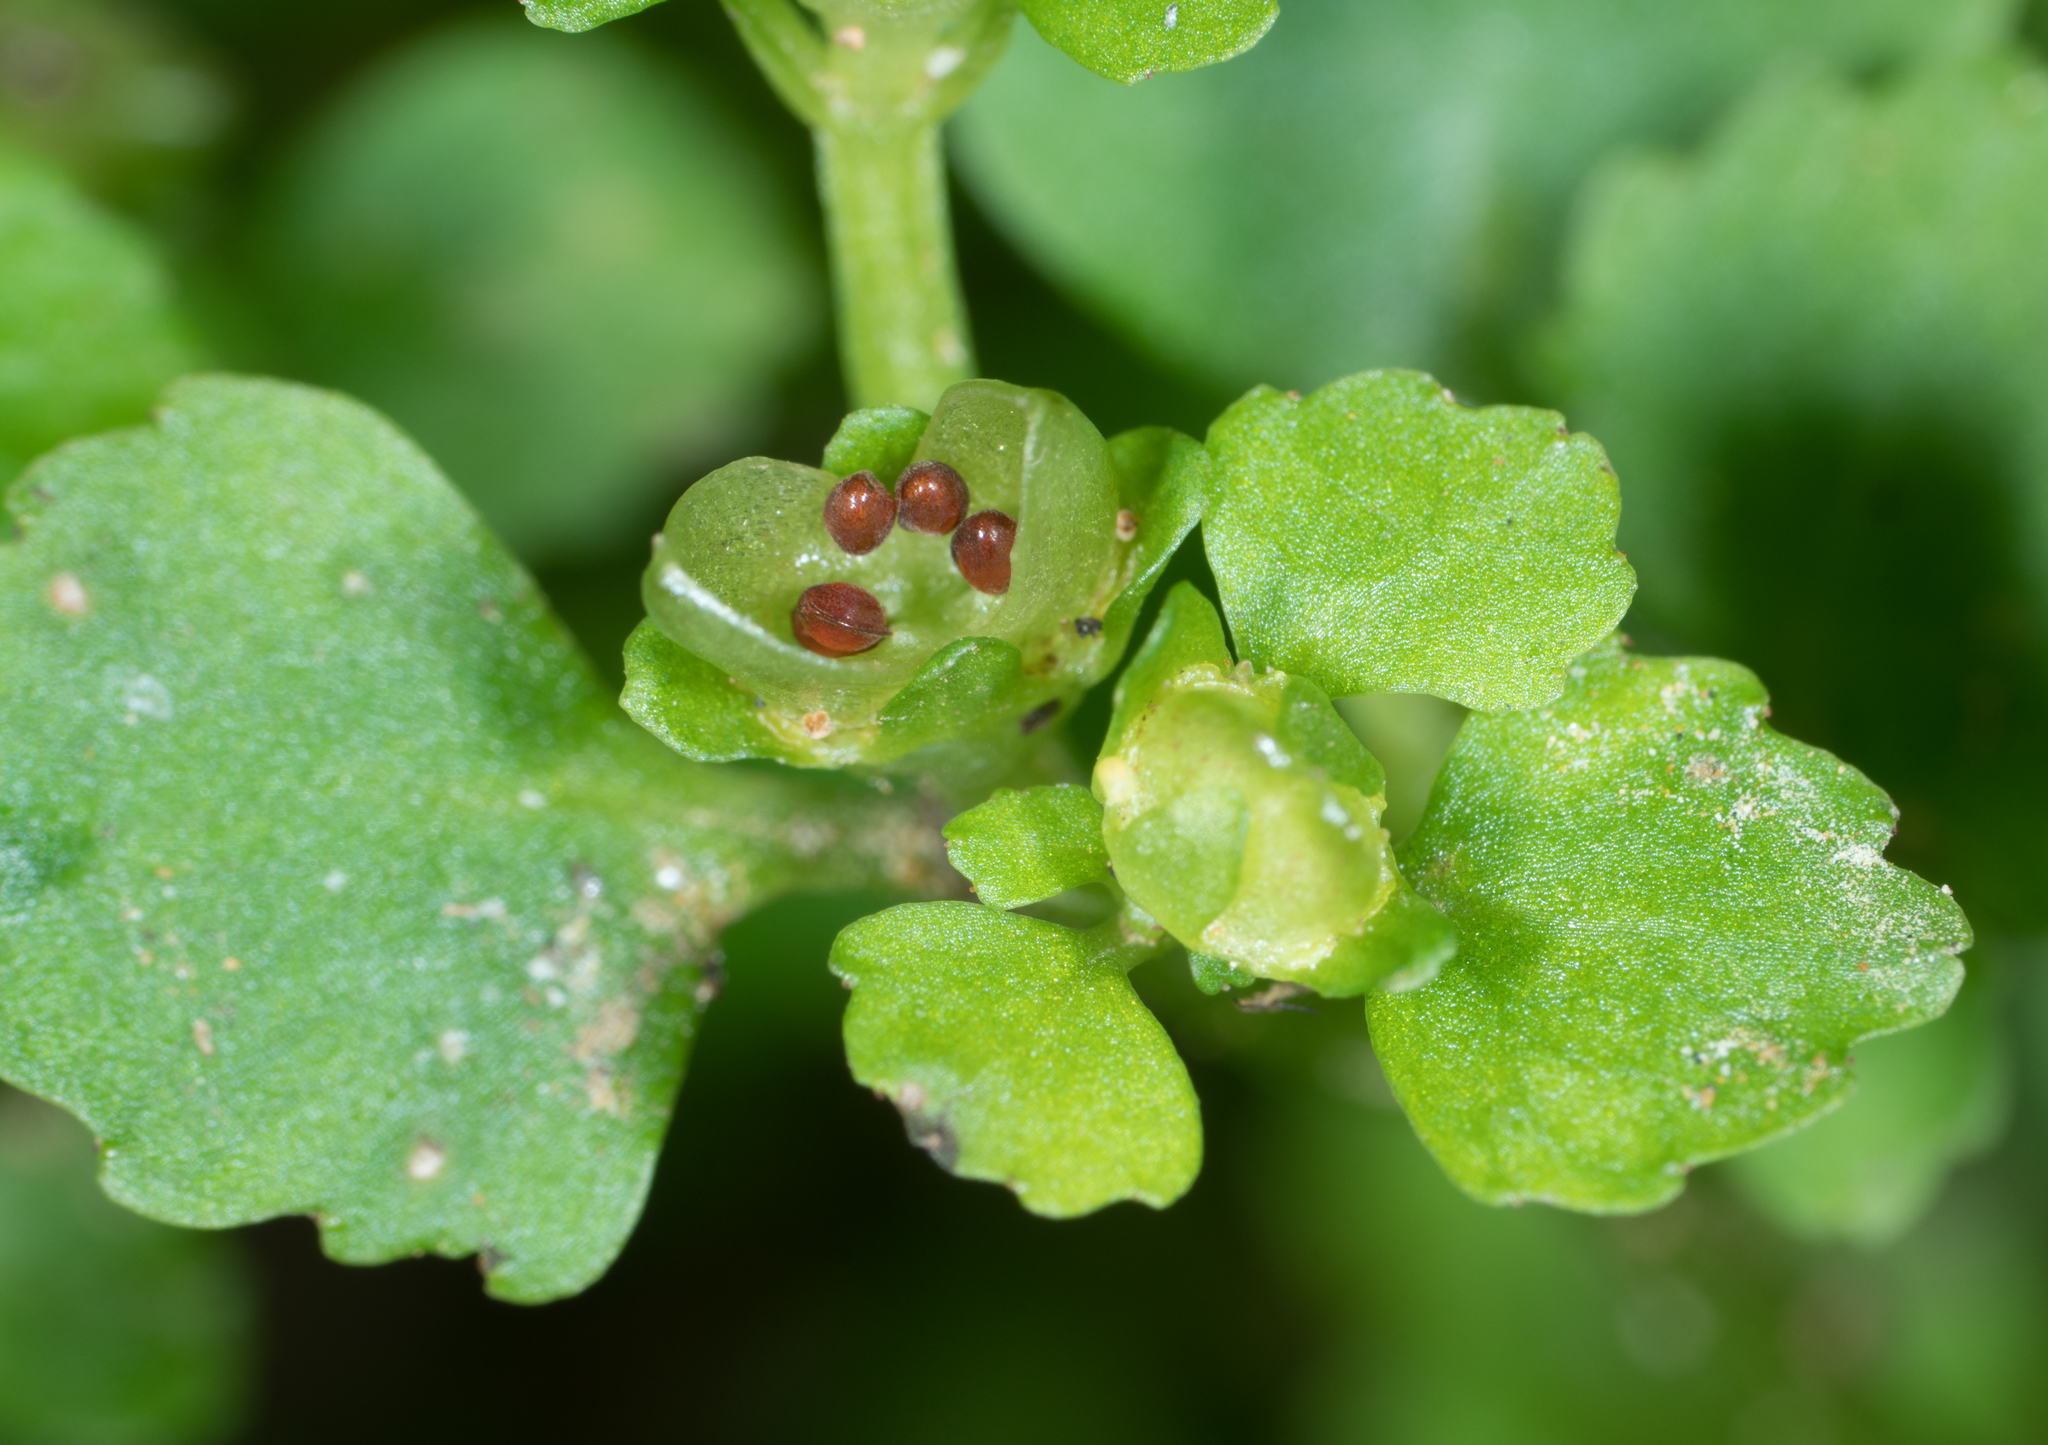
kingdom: Plantae
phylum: Tracheophyta
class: Magnoliopsida
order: Saxifragales
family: Saxifragaceae
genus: Chrysosplenium
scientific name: Chrysosplenium glechomifolium
